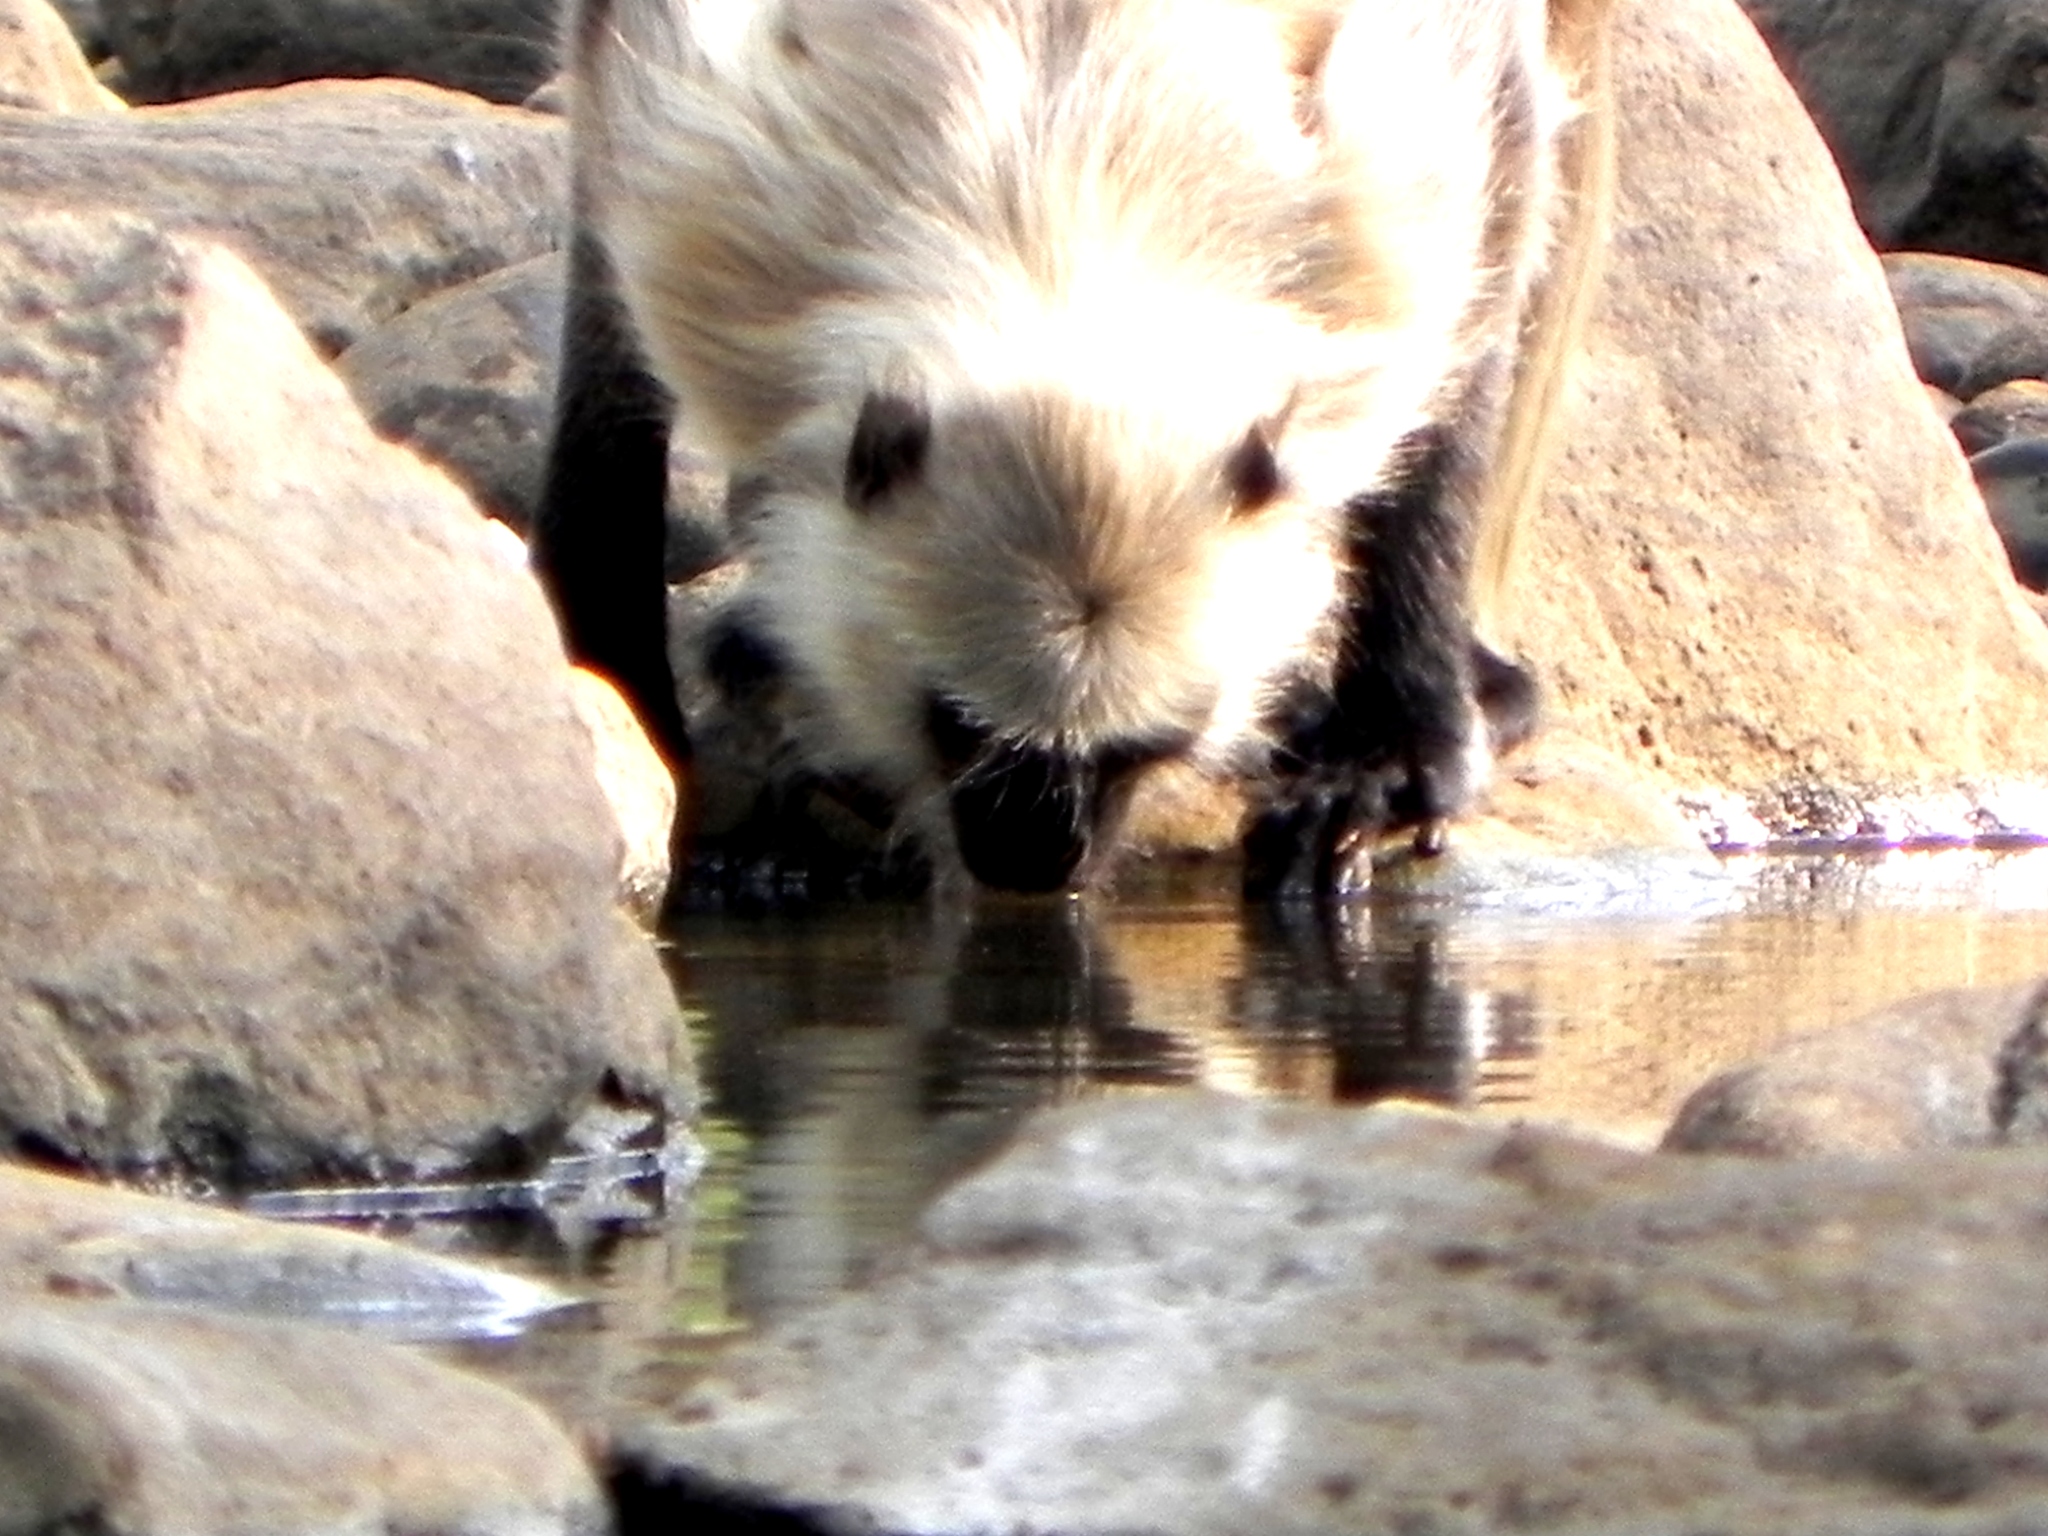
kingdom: Animalia
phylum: Chordata
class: Mammalia
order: Primates
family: Cercopithecidae
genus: Semnopithecus
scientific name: Semnopithecus entellus
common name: Northern plains gray langur
